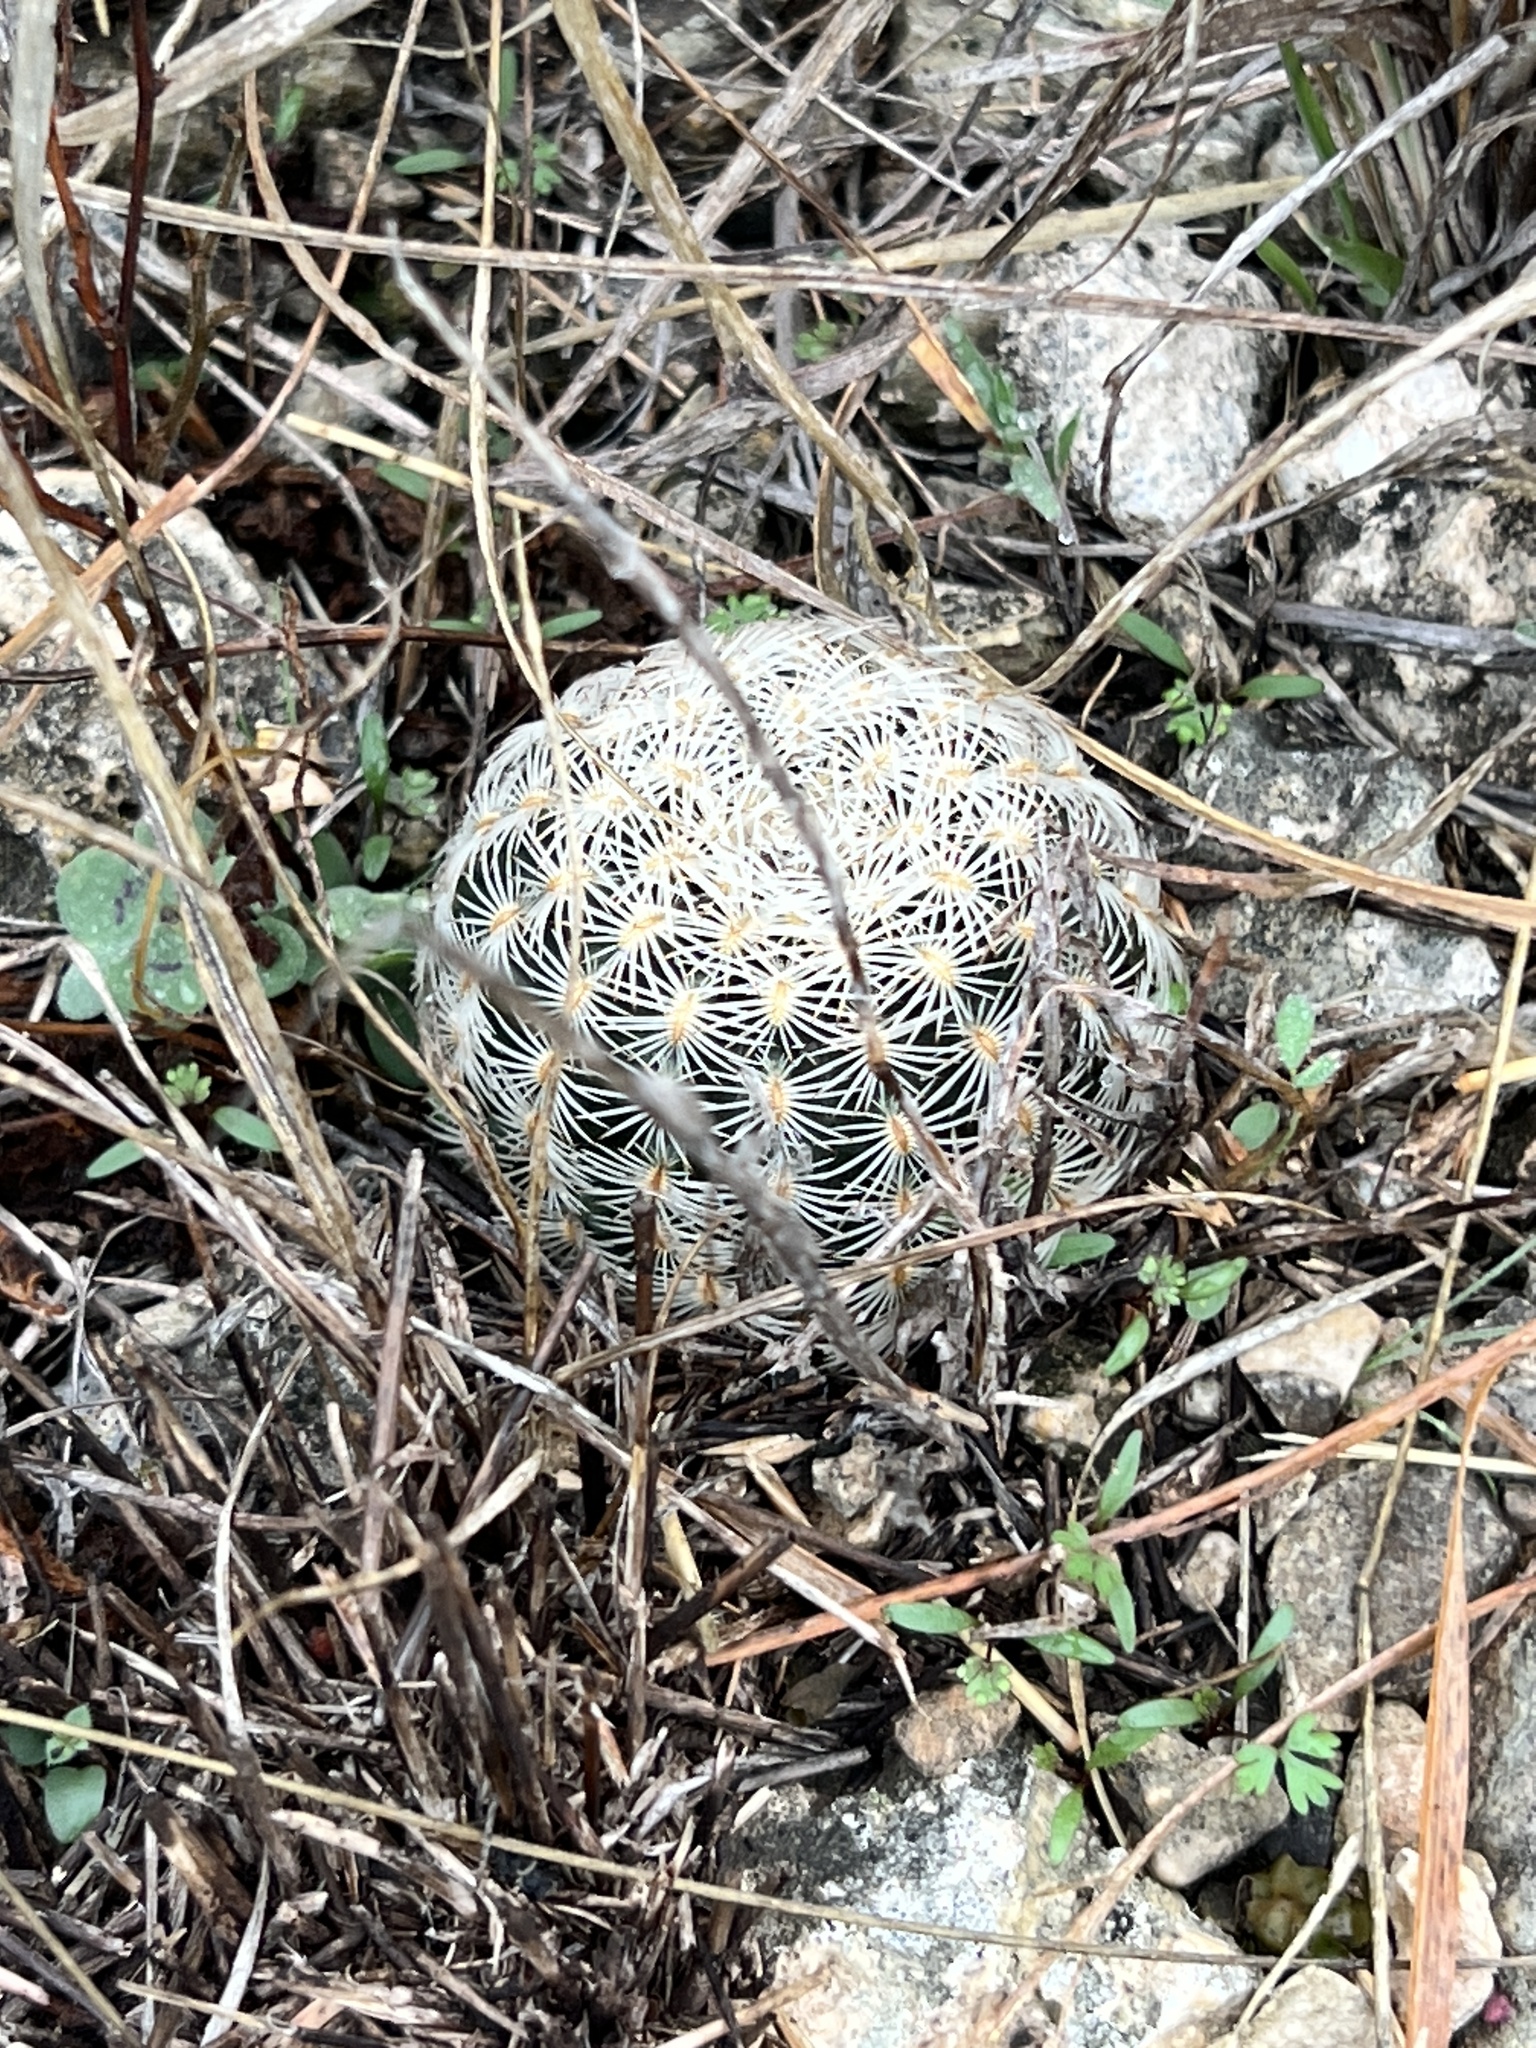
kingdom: Plantae
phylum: Tracheophyta
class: Magnoliopsida
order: Caryophyllales
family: Cactaceae
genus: Echinocereus
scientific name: Echinocereus reichenbachii
